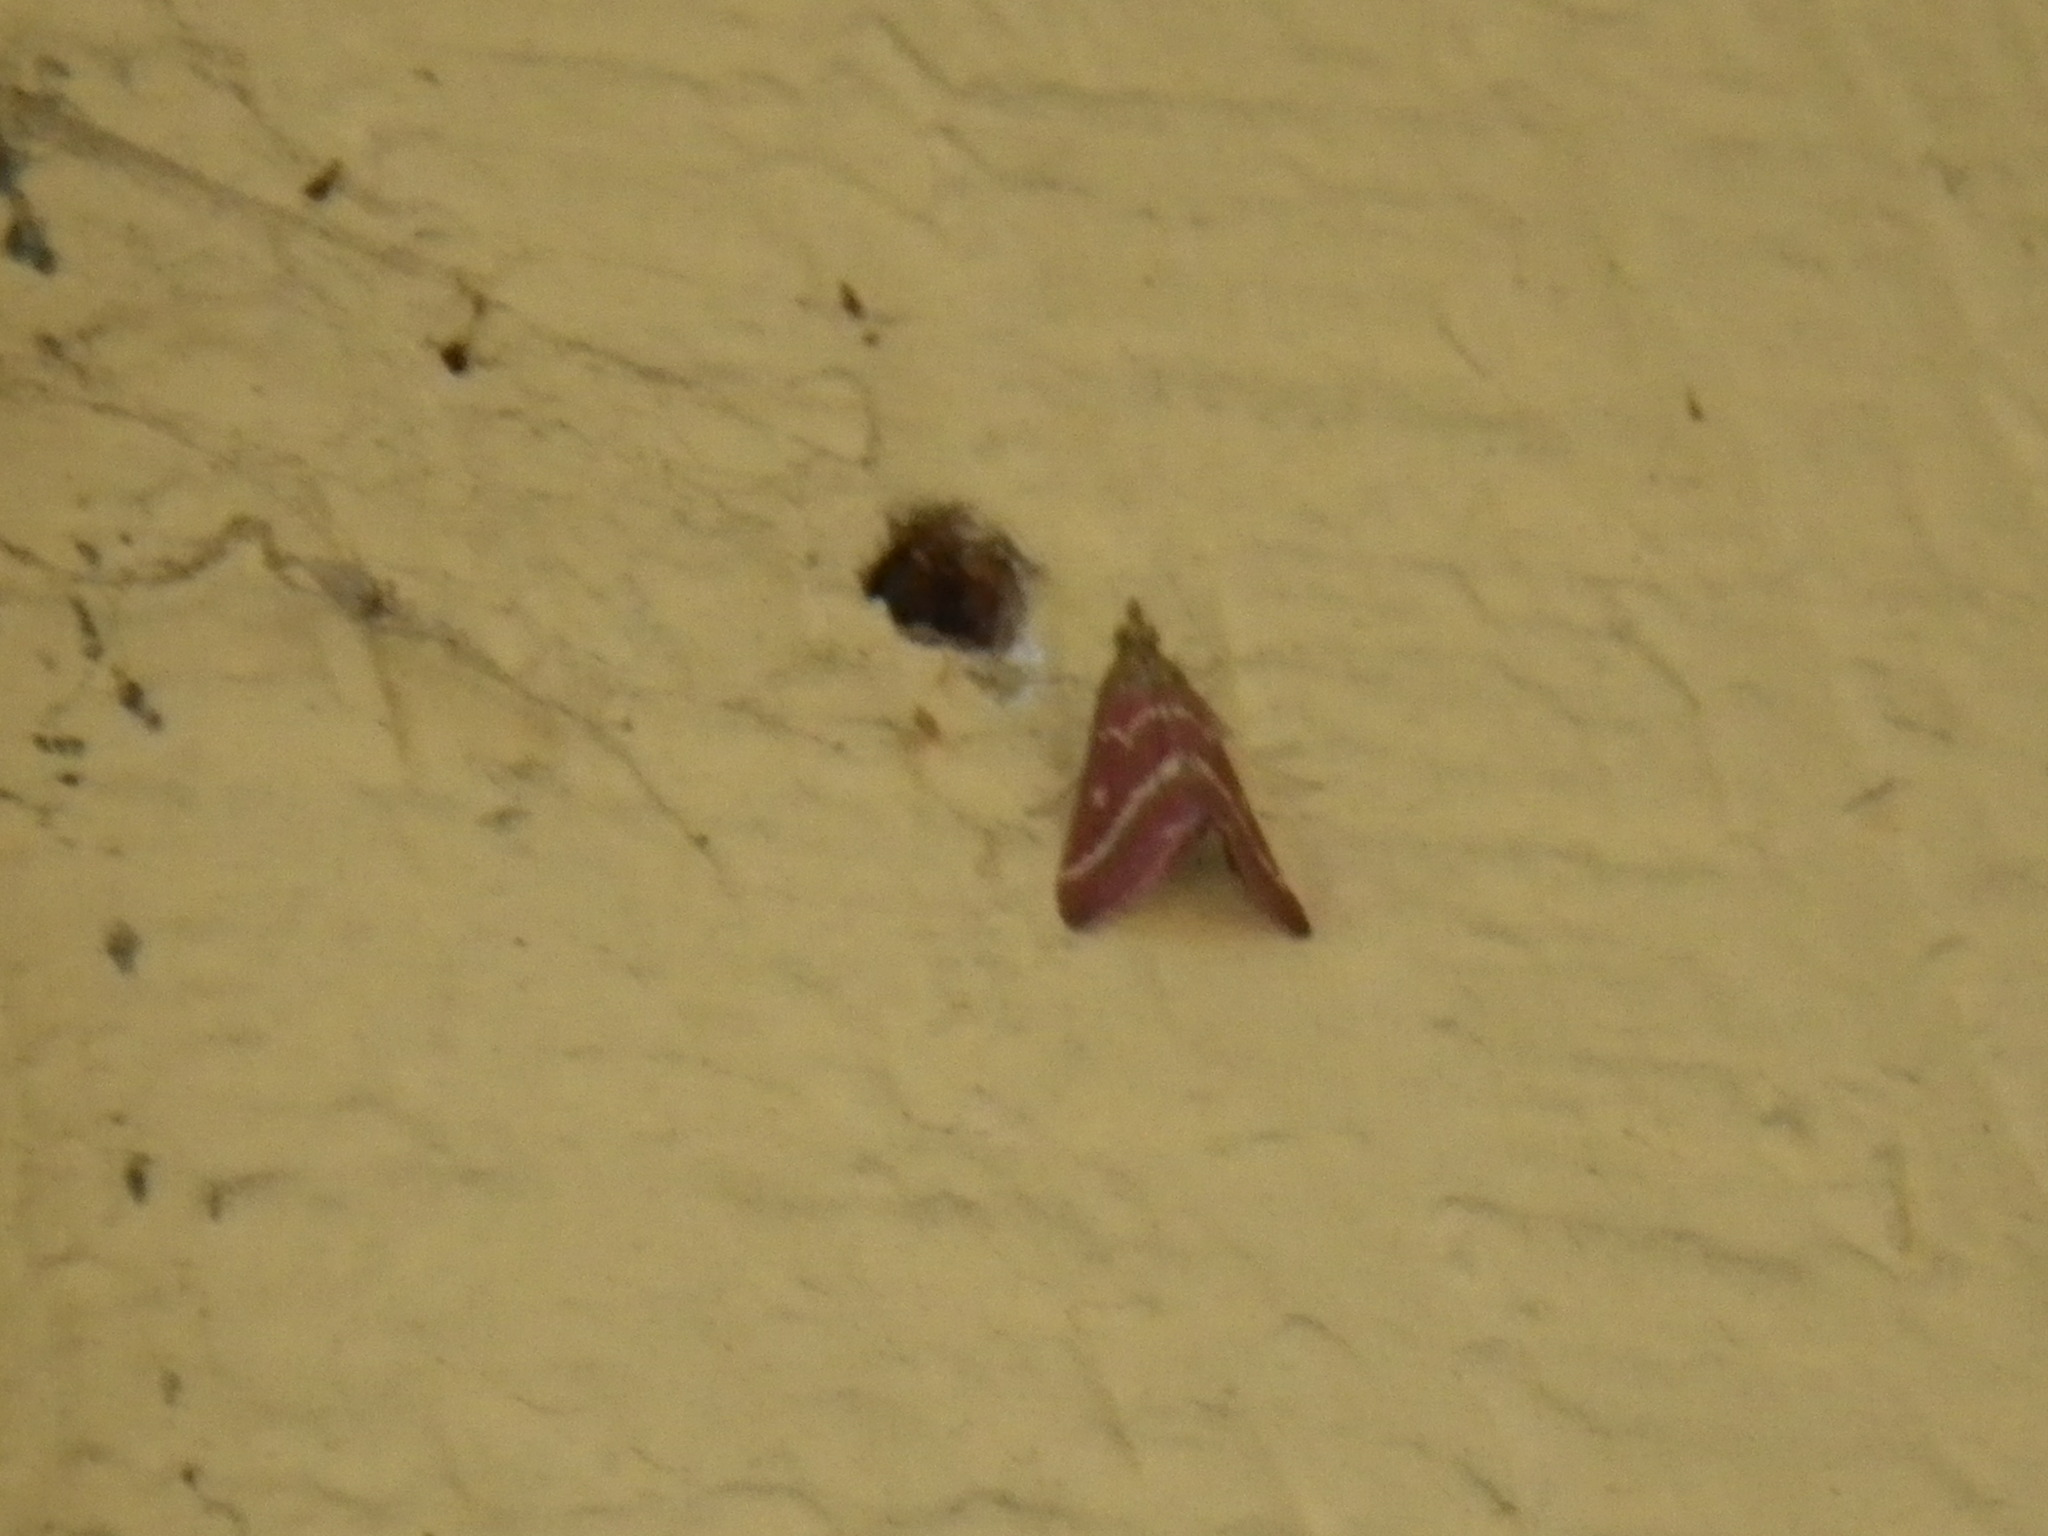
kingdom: Animalia
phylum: Arthropoda
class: Insecta
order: Lepidoptera
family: Crambidae
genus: Pyrausta
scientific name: Pyrausta volupialis
